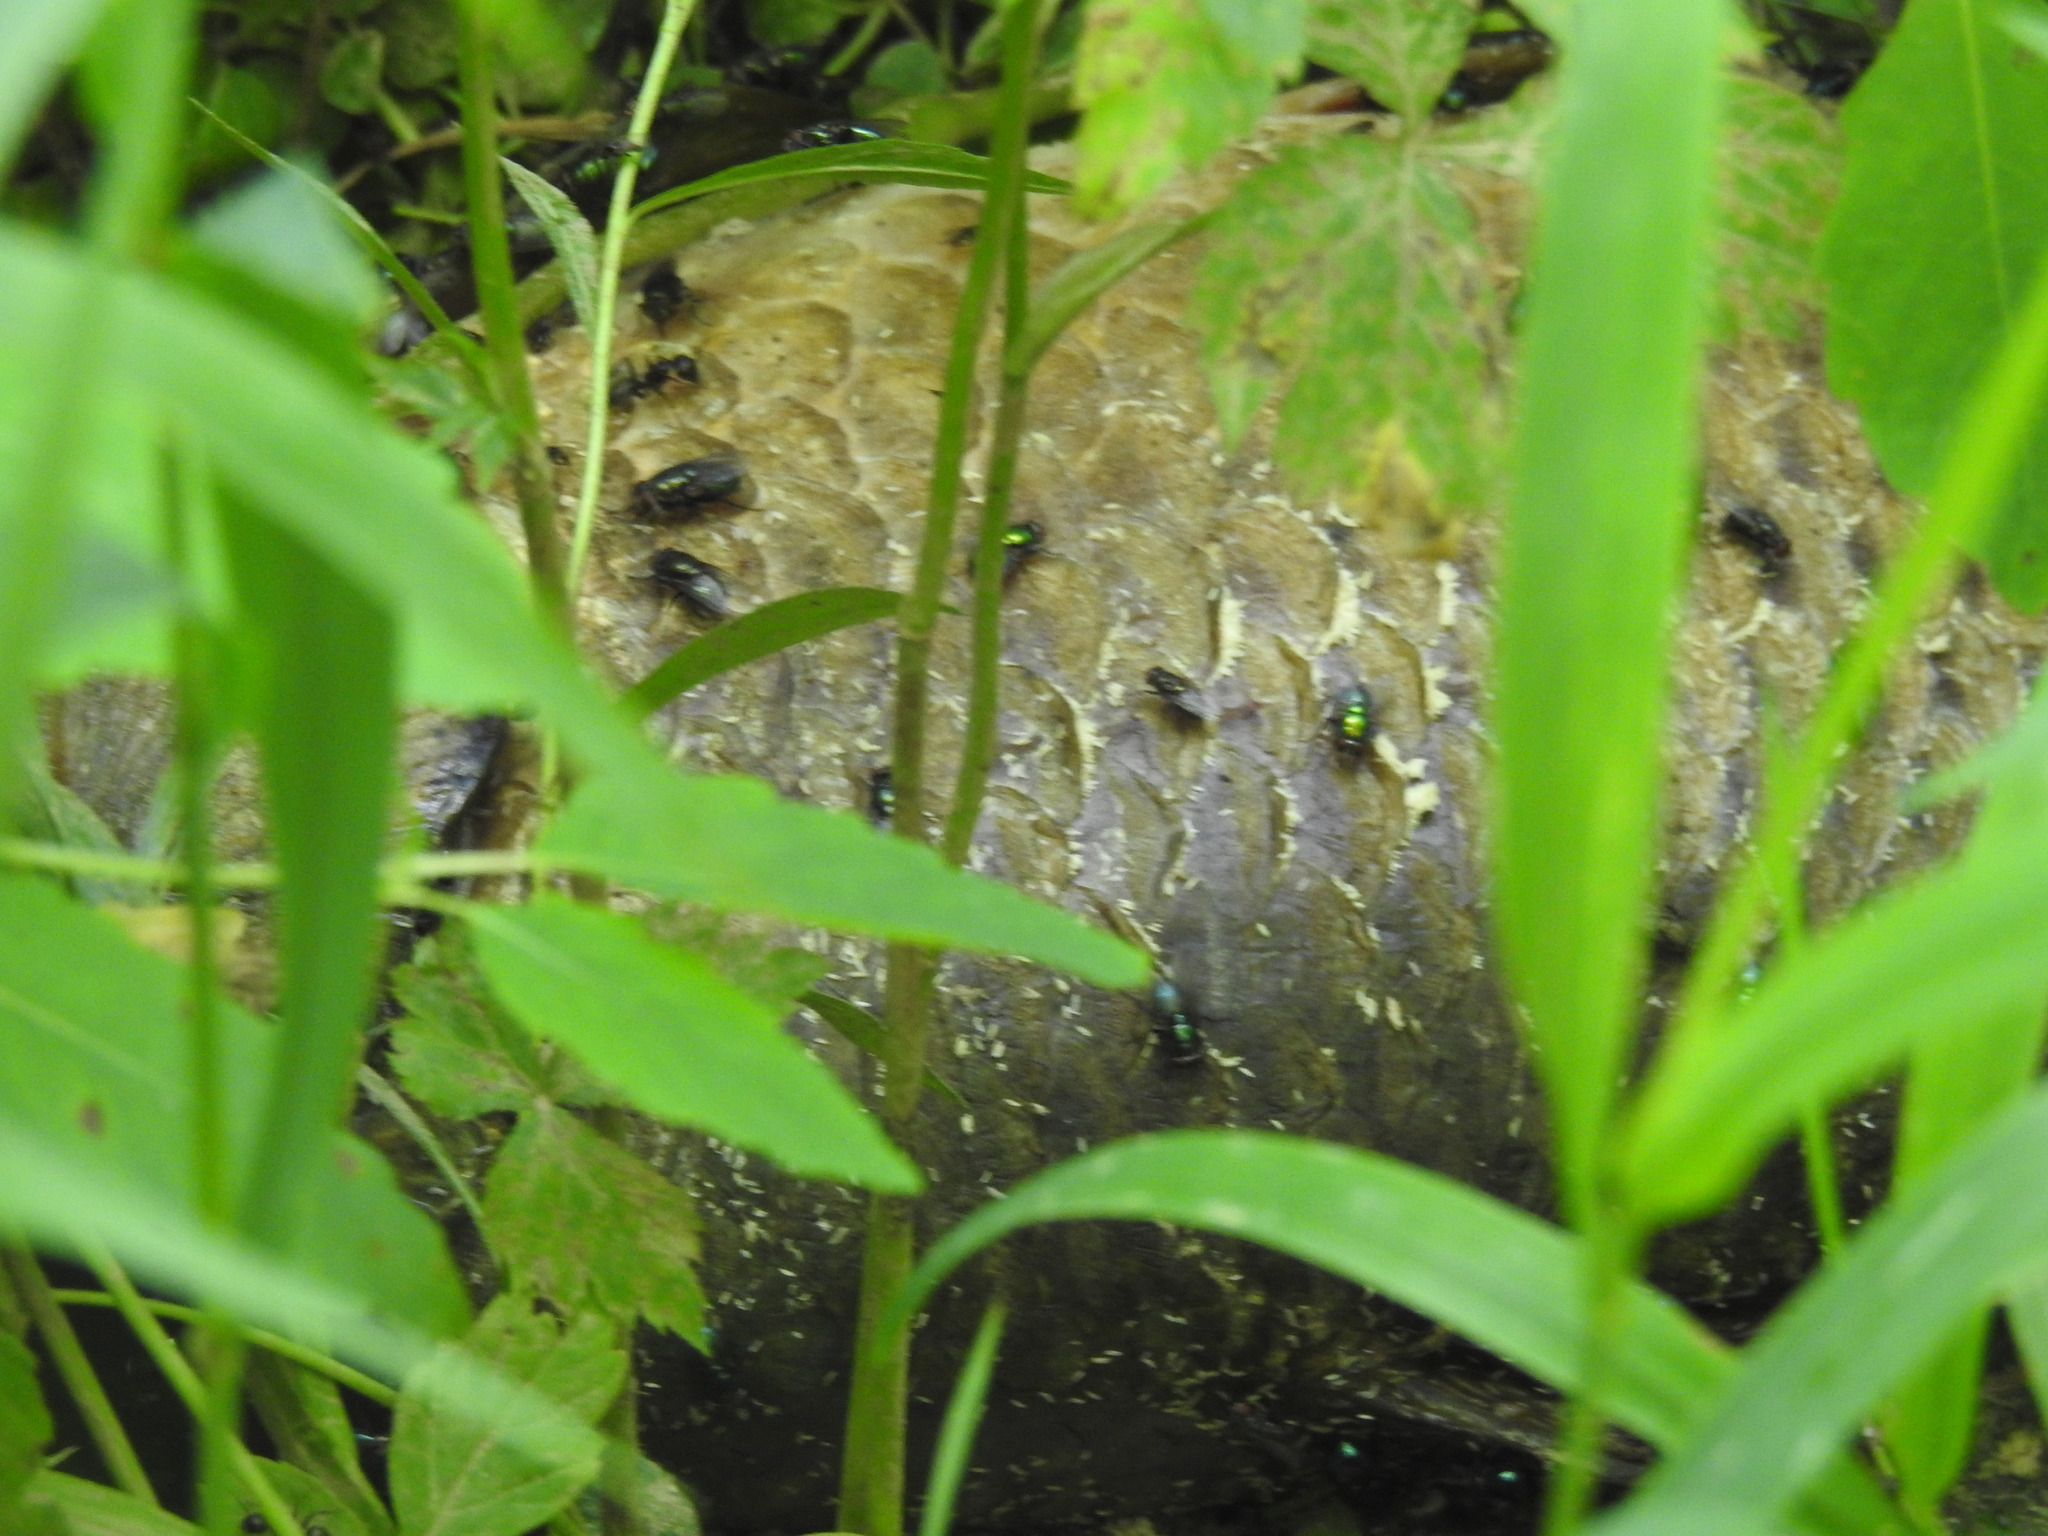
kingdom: Animalia
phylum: Chordata
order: Cypriniformes
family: Cyprinidae
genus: Cyprinus
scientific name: Cyprinus carpio
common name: Common carp
